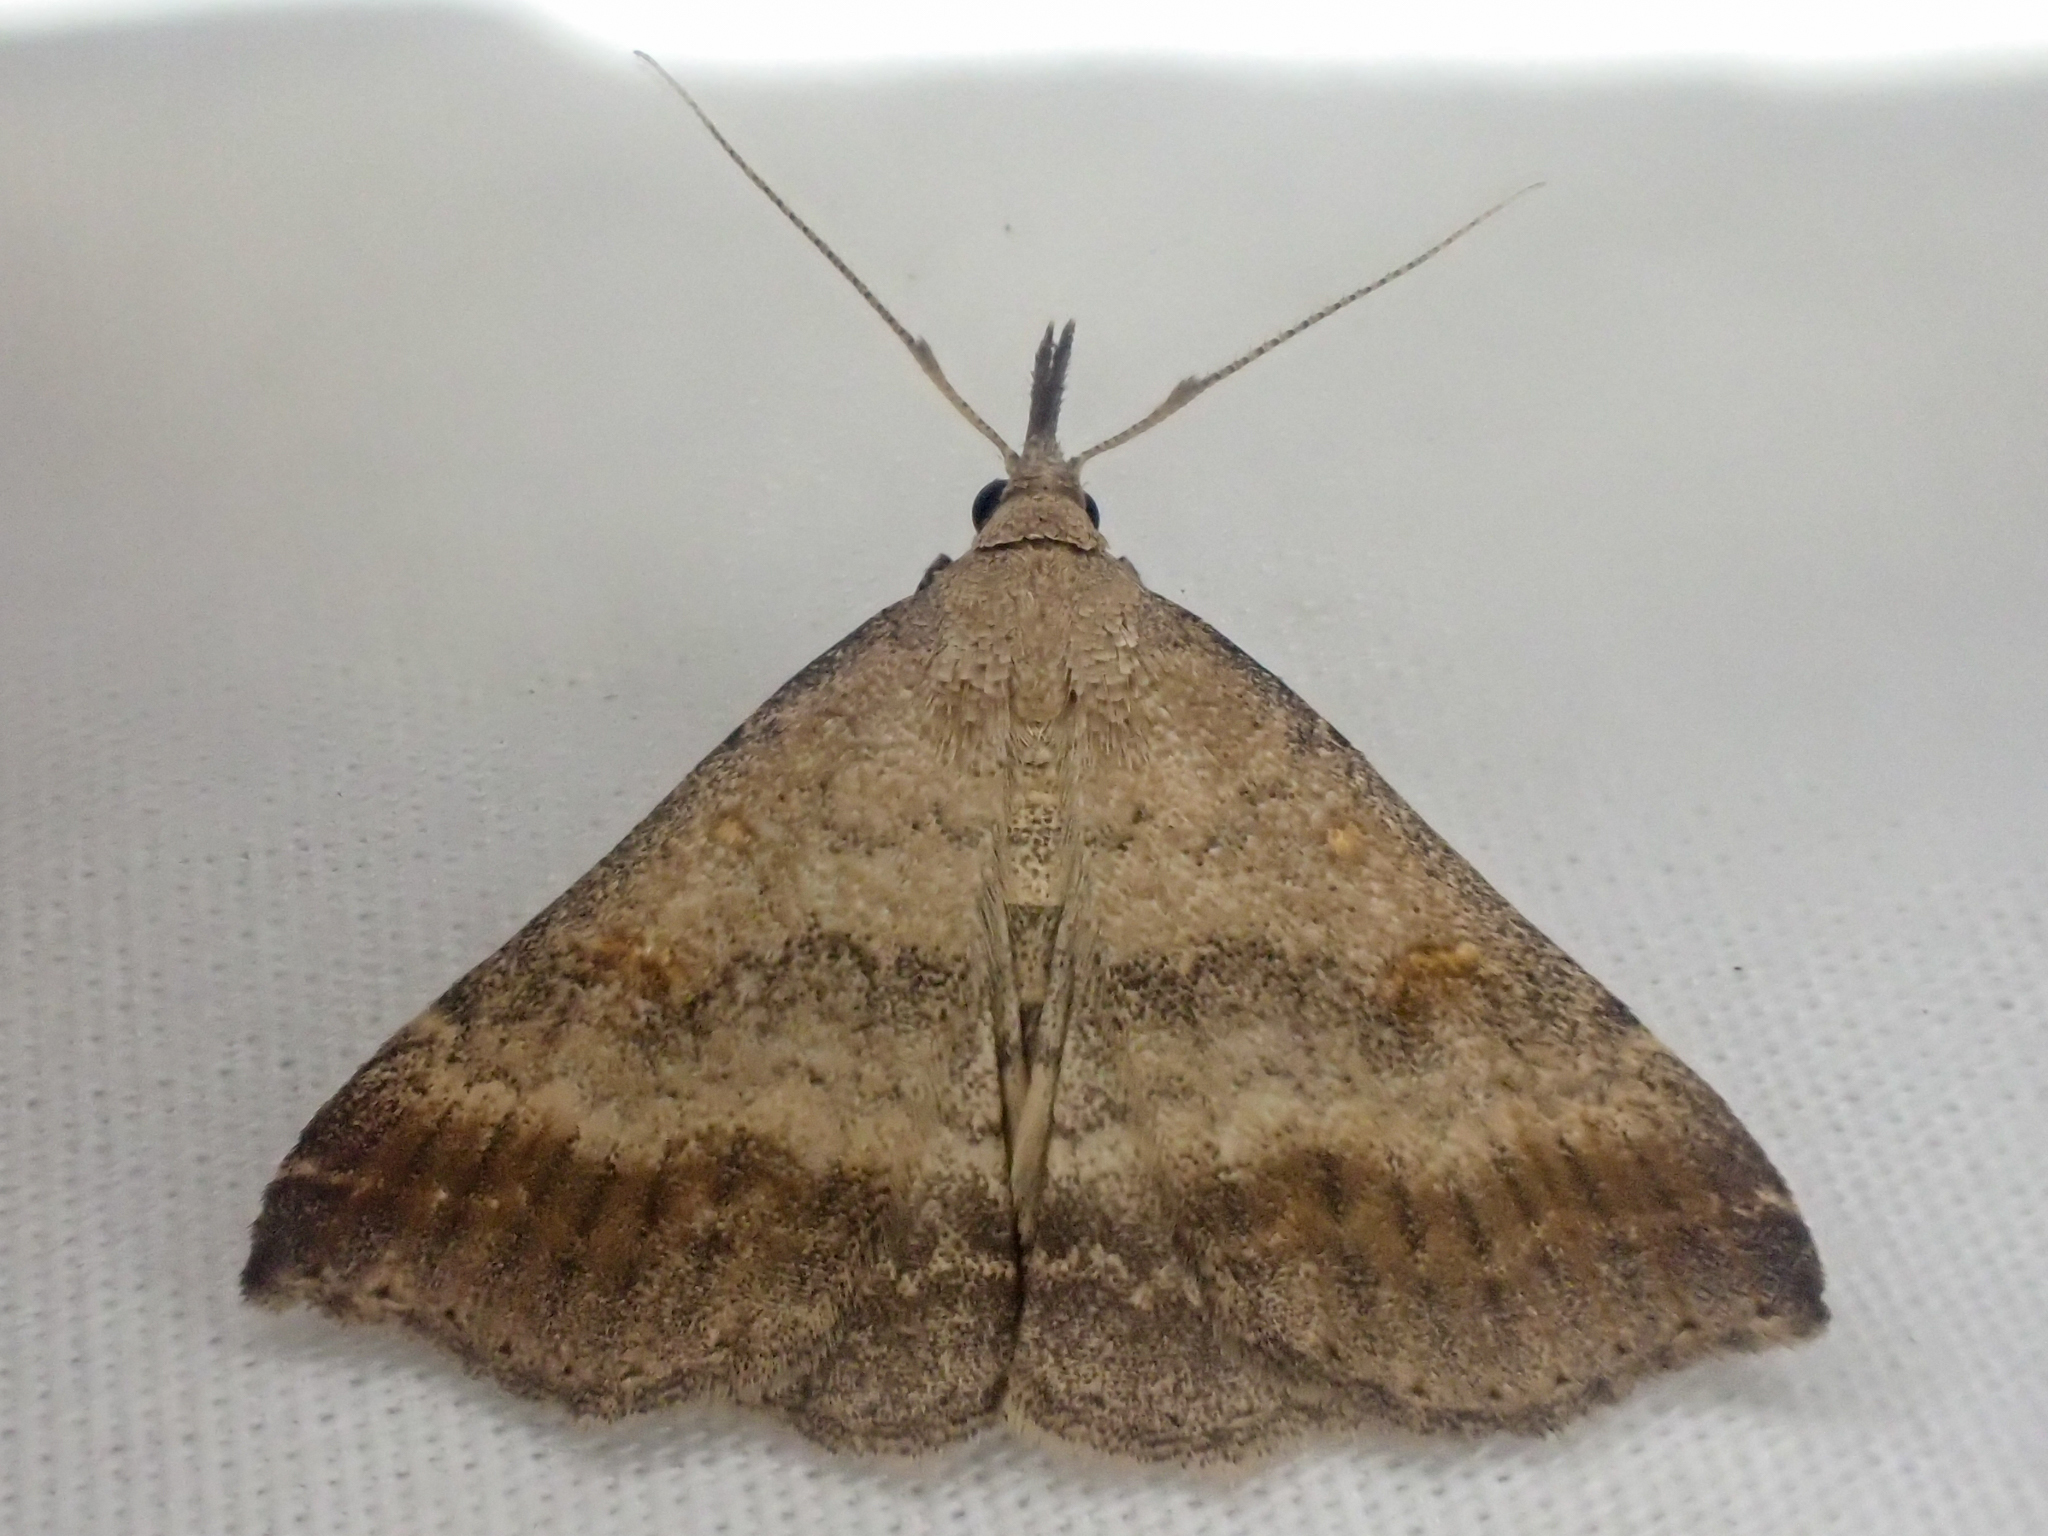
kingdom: Animalia
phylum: Arthropoda
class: Insecta
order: Lepidoptera
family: Erebidae
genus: Tetanolita
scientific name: Tetanolita palligera
